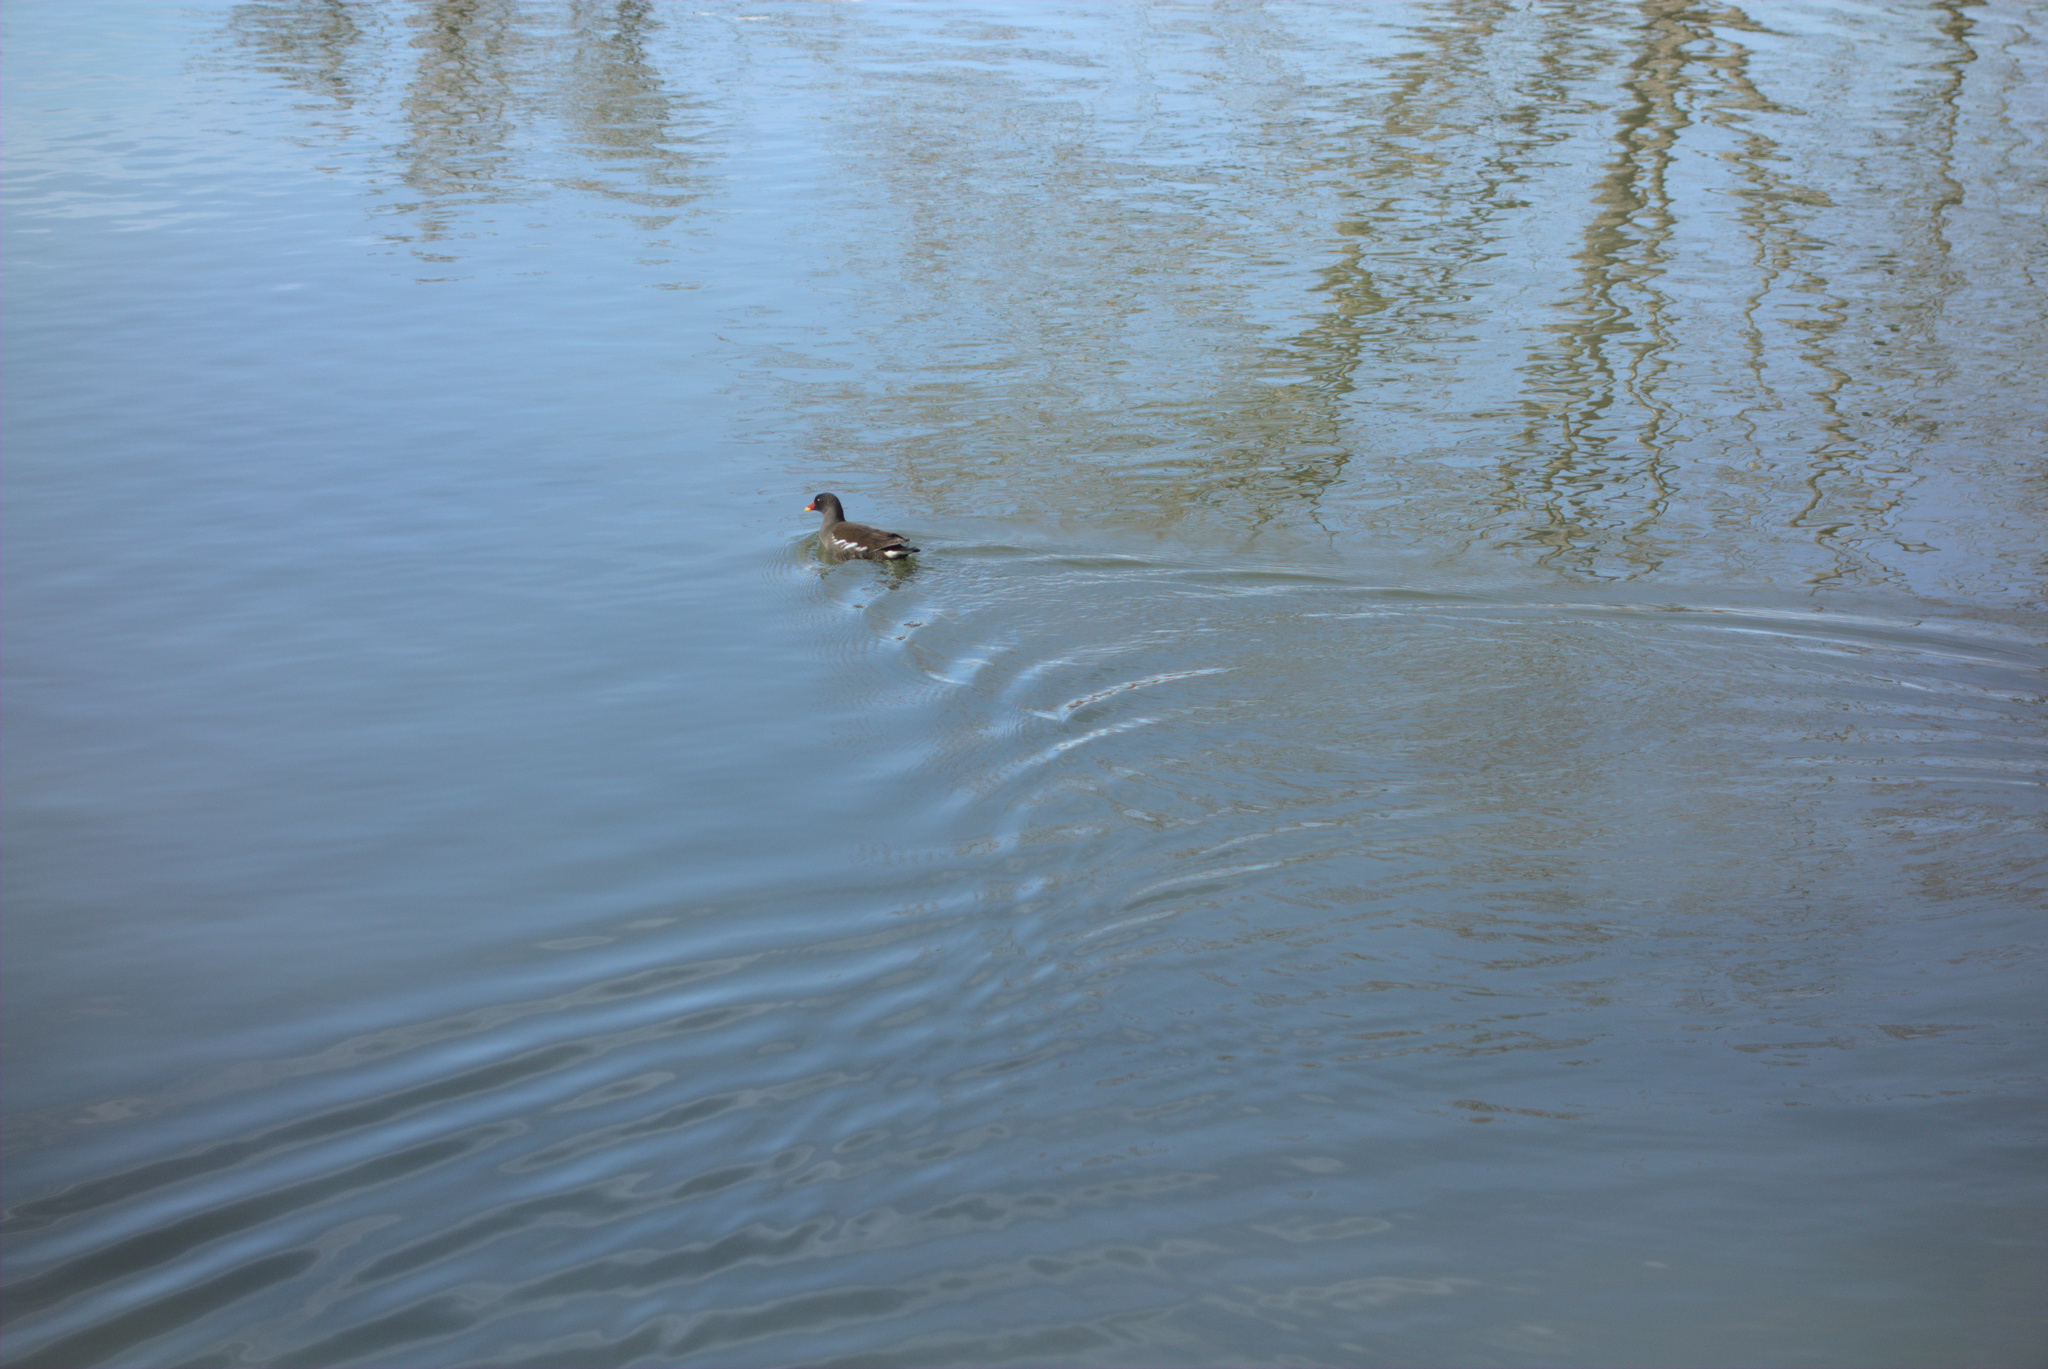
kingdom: Animalia
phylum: Chordata
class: Aves
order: Gruiformes
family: Rallidae
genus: Gallinula
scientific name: Gallinula chloropus
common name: Common moorhen
